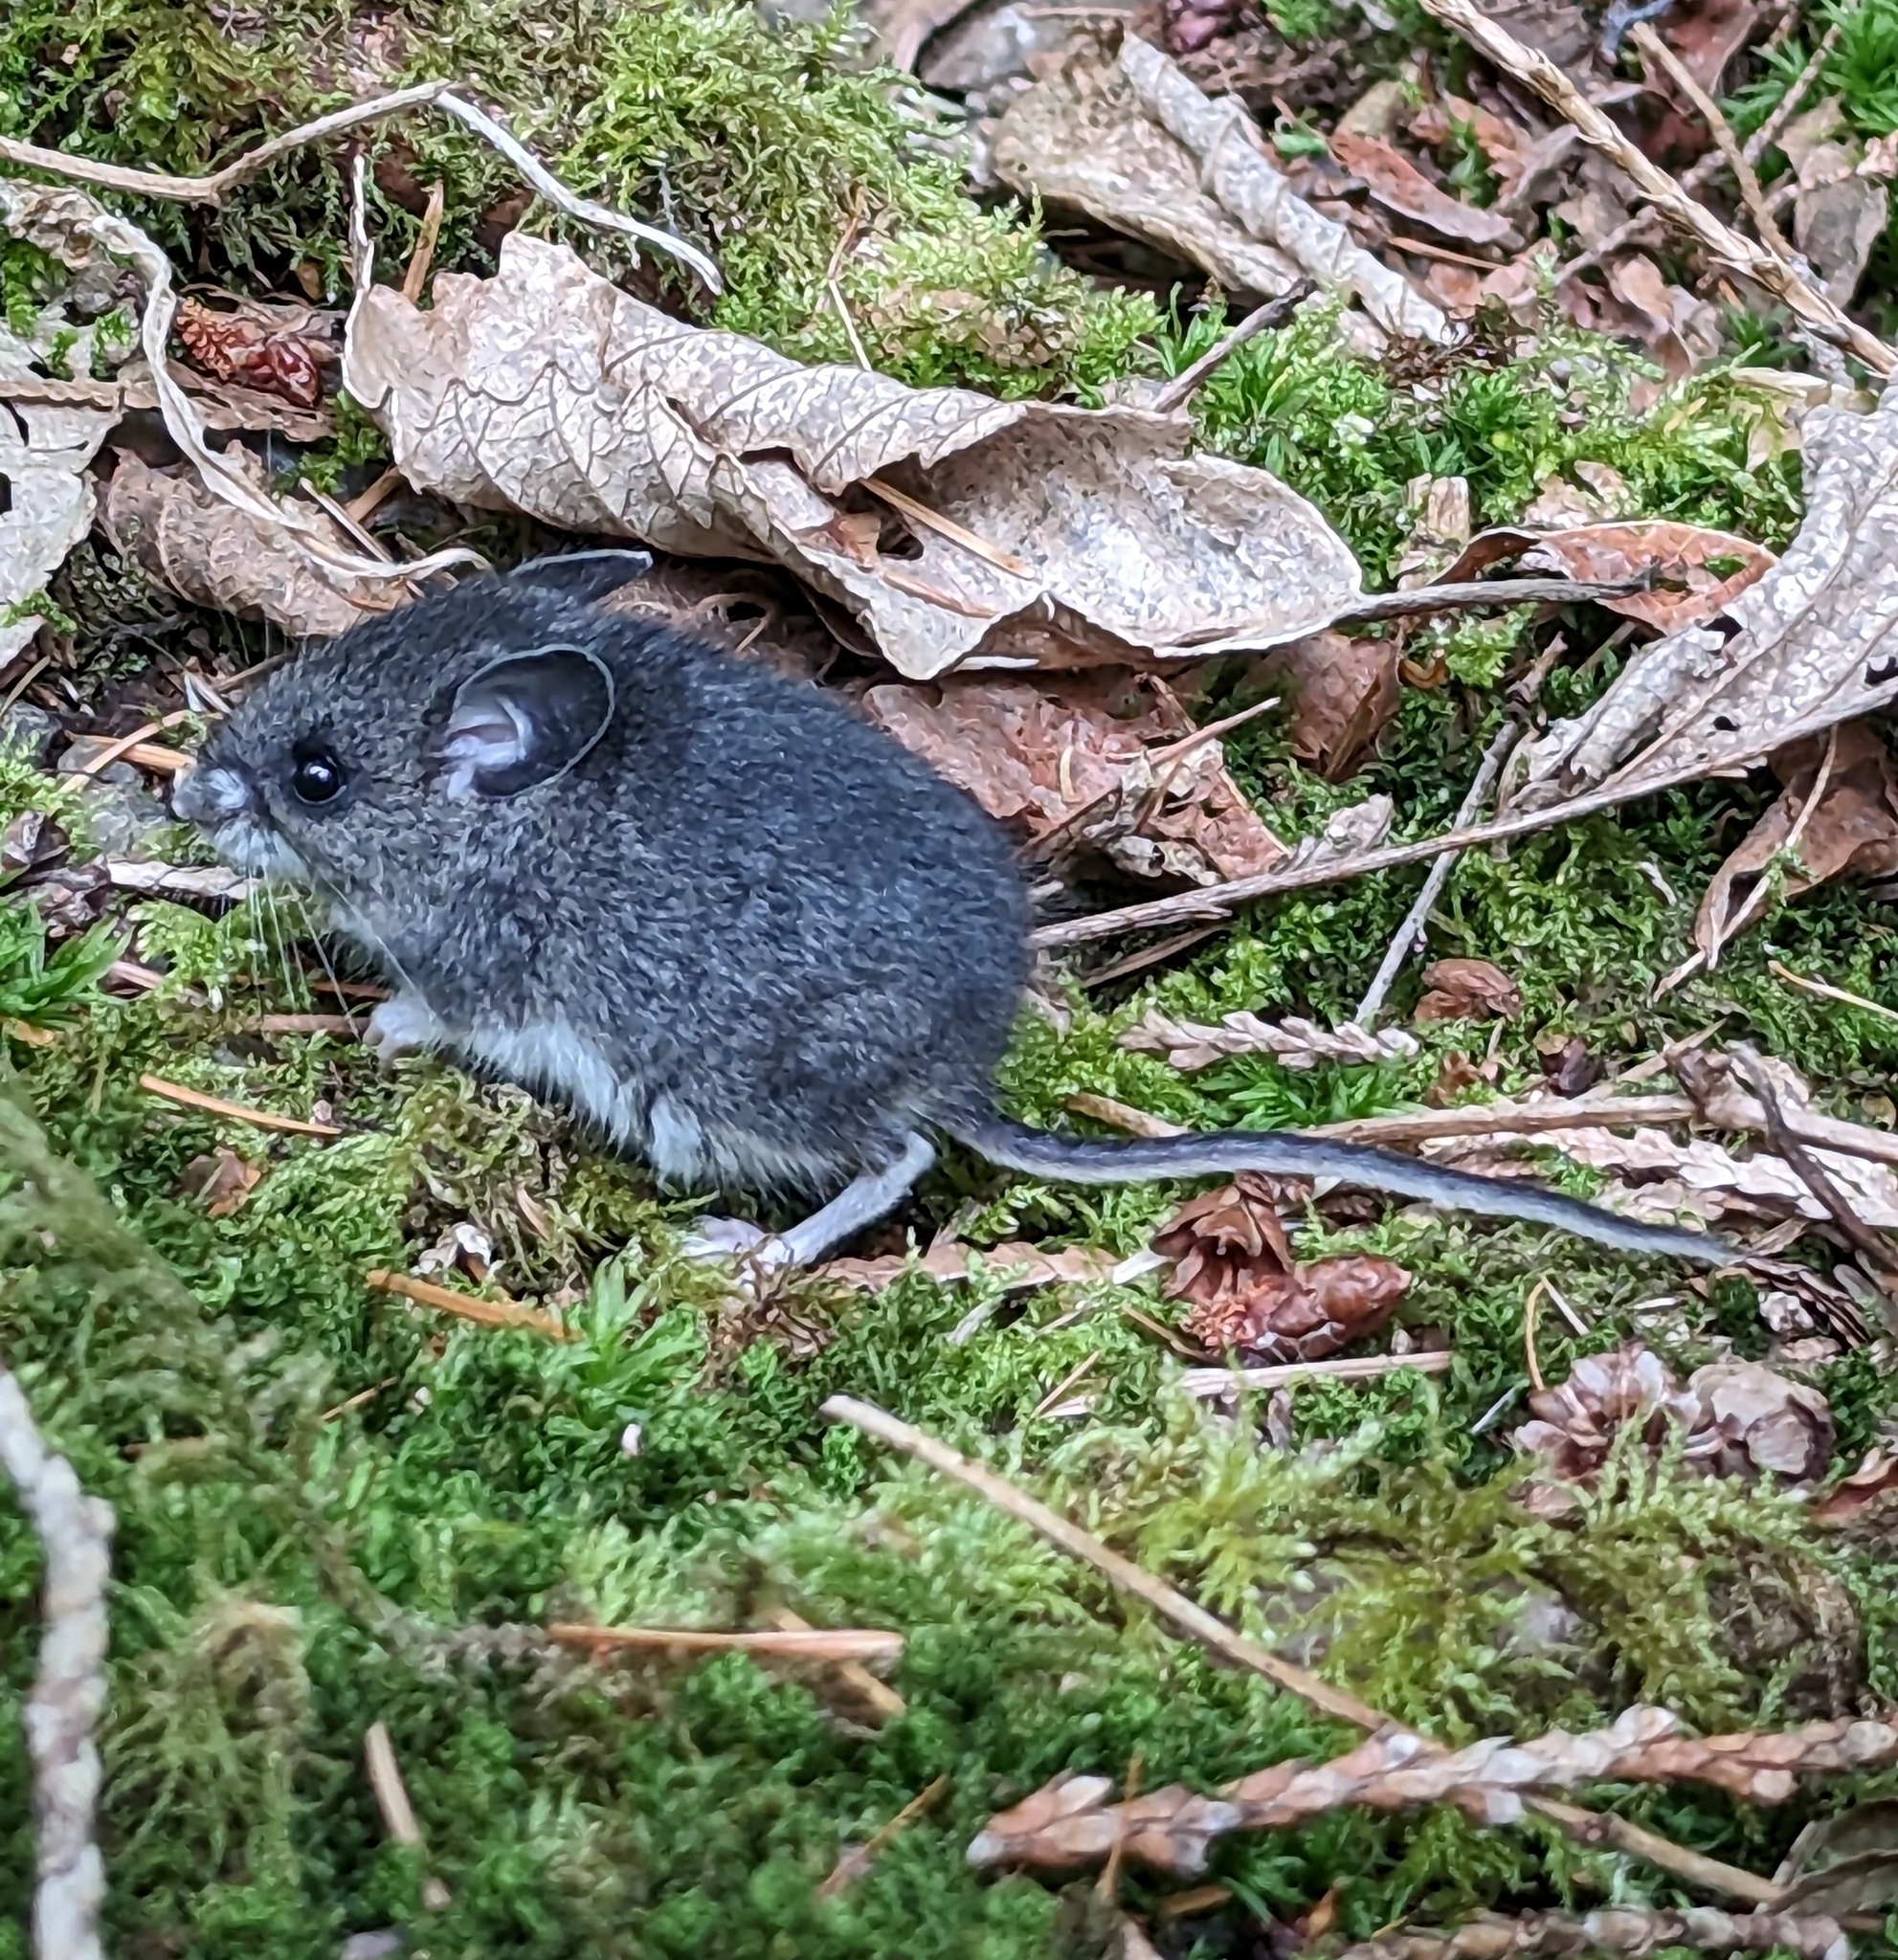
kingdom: Animalia
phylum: Chordata
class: Mammalia
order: Rodentia
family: Cricetidae
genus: Peromyscus
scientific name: Peromyscus maniculatus
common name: Deer mouse
